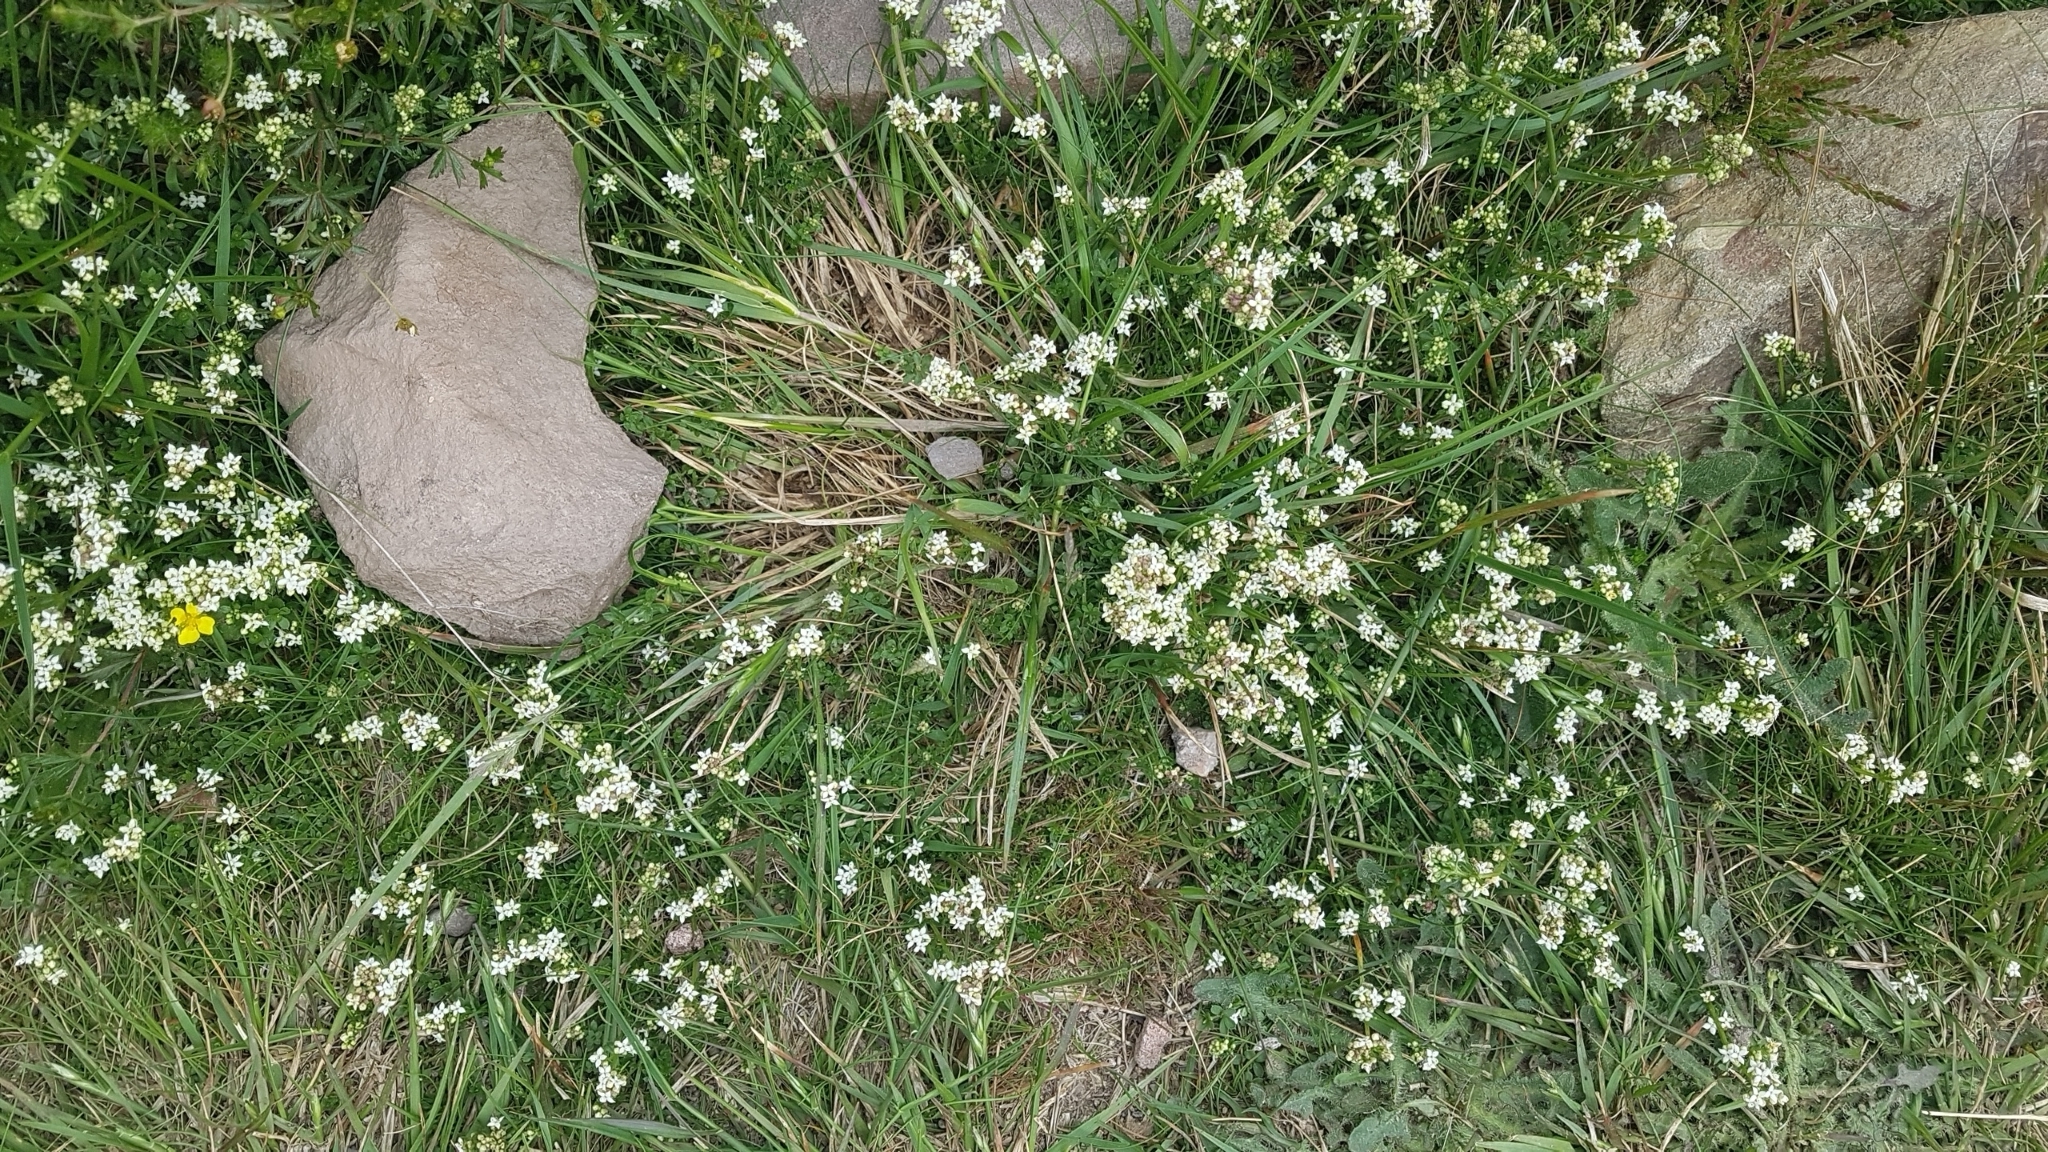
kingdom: Plantae
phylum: Tracheophyta
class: Magnoliopsida
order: Gentianales
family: Rubiaceae
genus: Galium
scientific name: Galium saxatile
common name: Heath bedstraw
